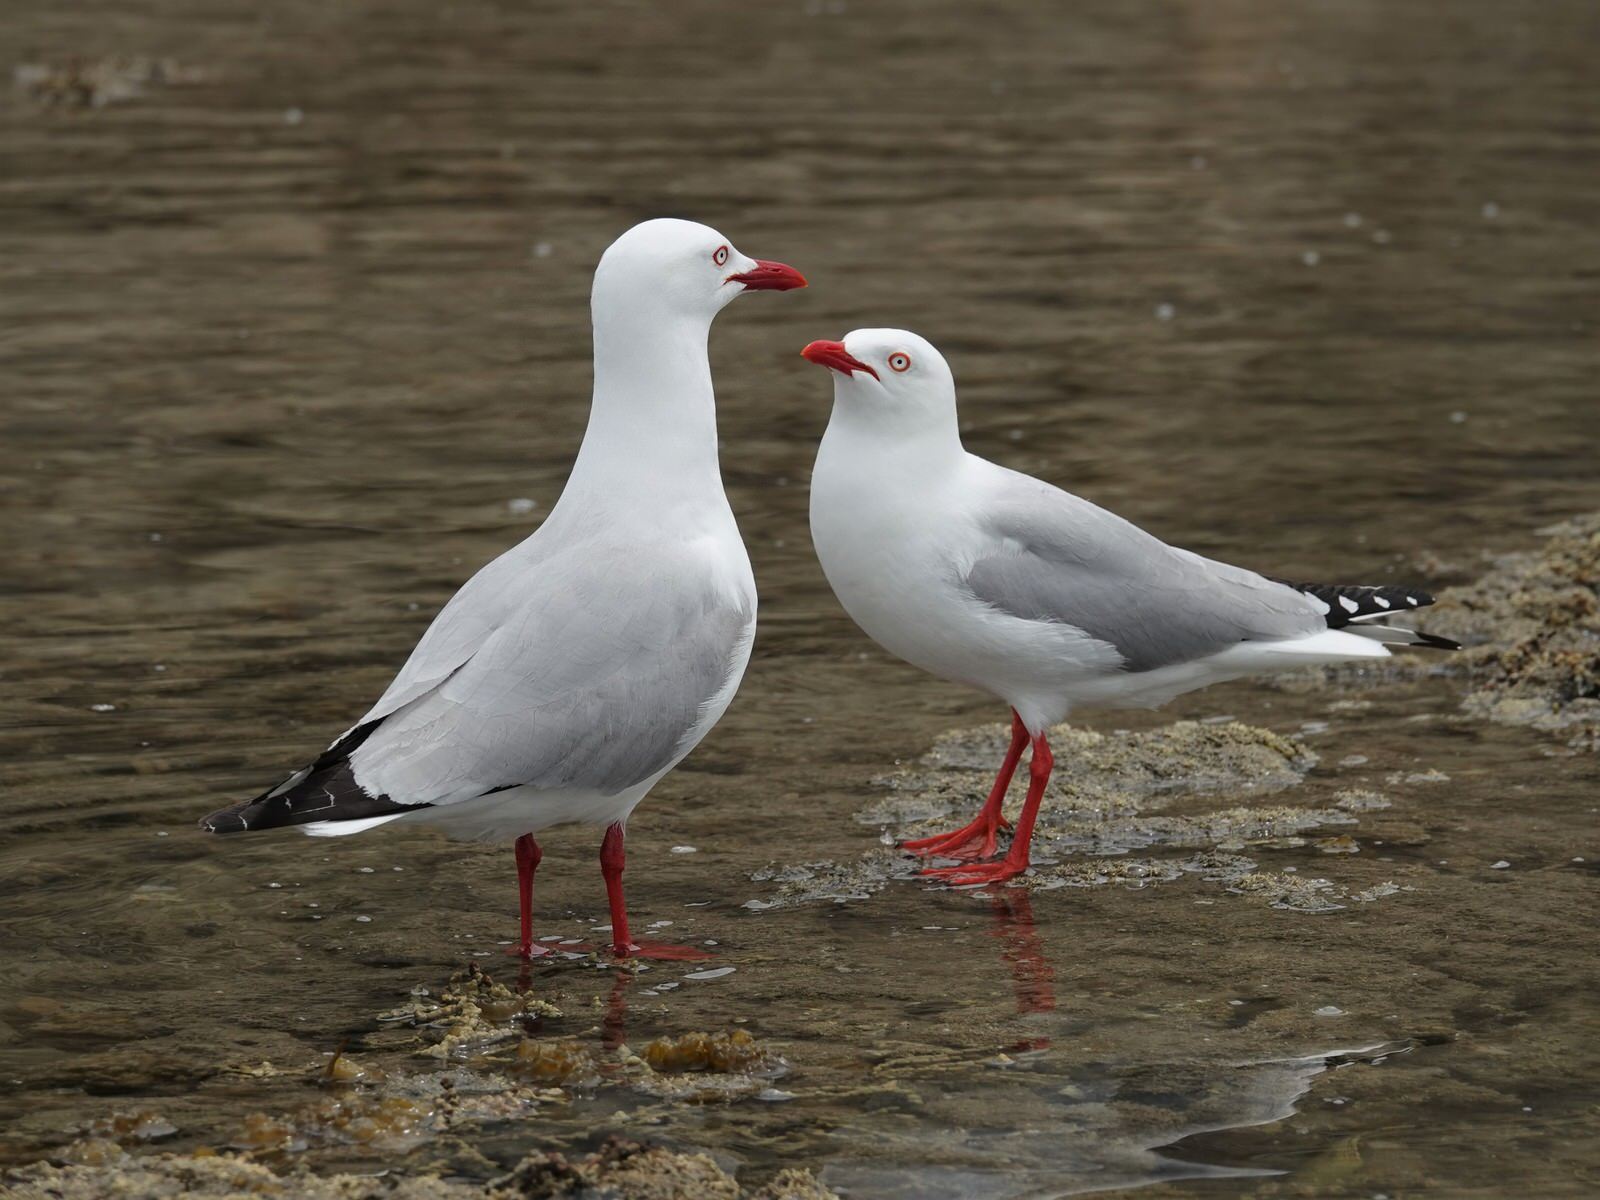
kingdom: Animalia
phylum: Chordata
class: Aves
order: Charadriiformes
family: Laridae
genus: Chroicocephalus
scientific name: Chroicocephalus novaehollandiae
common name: Silver gull
